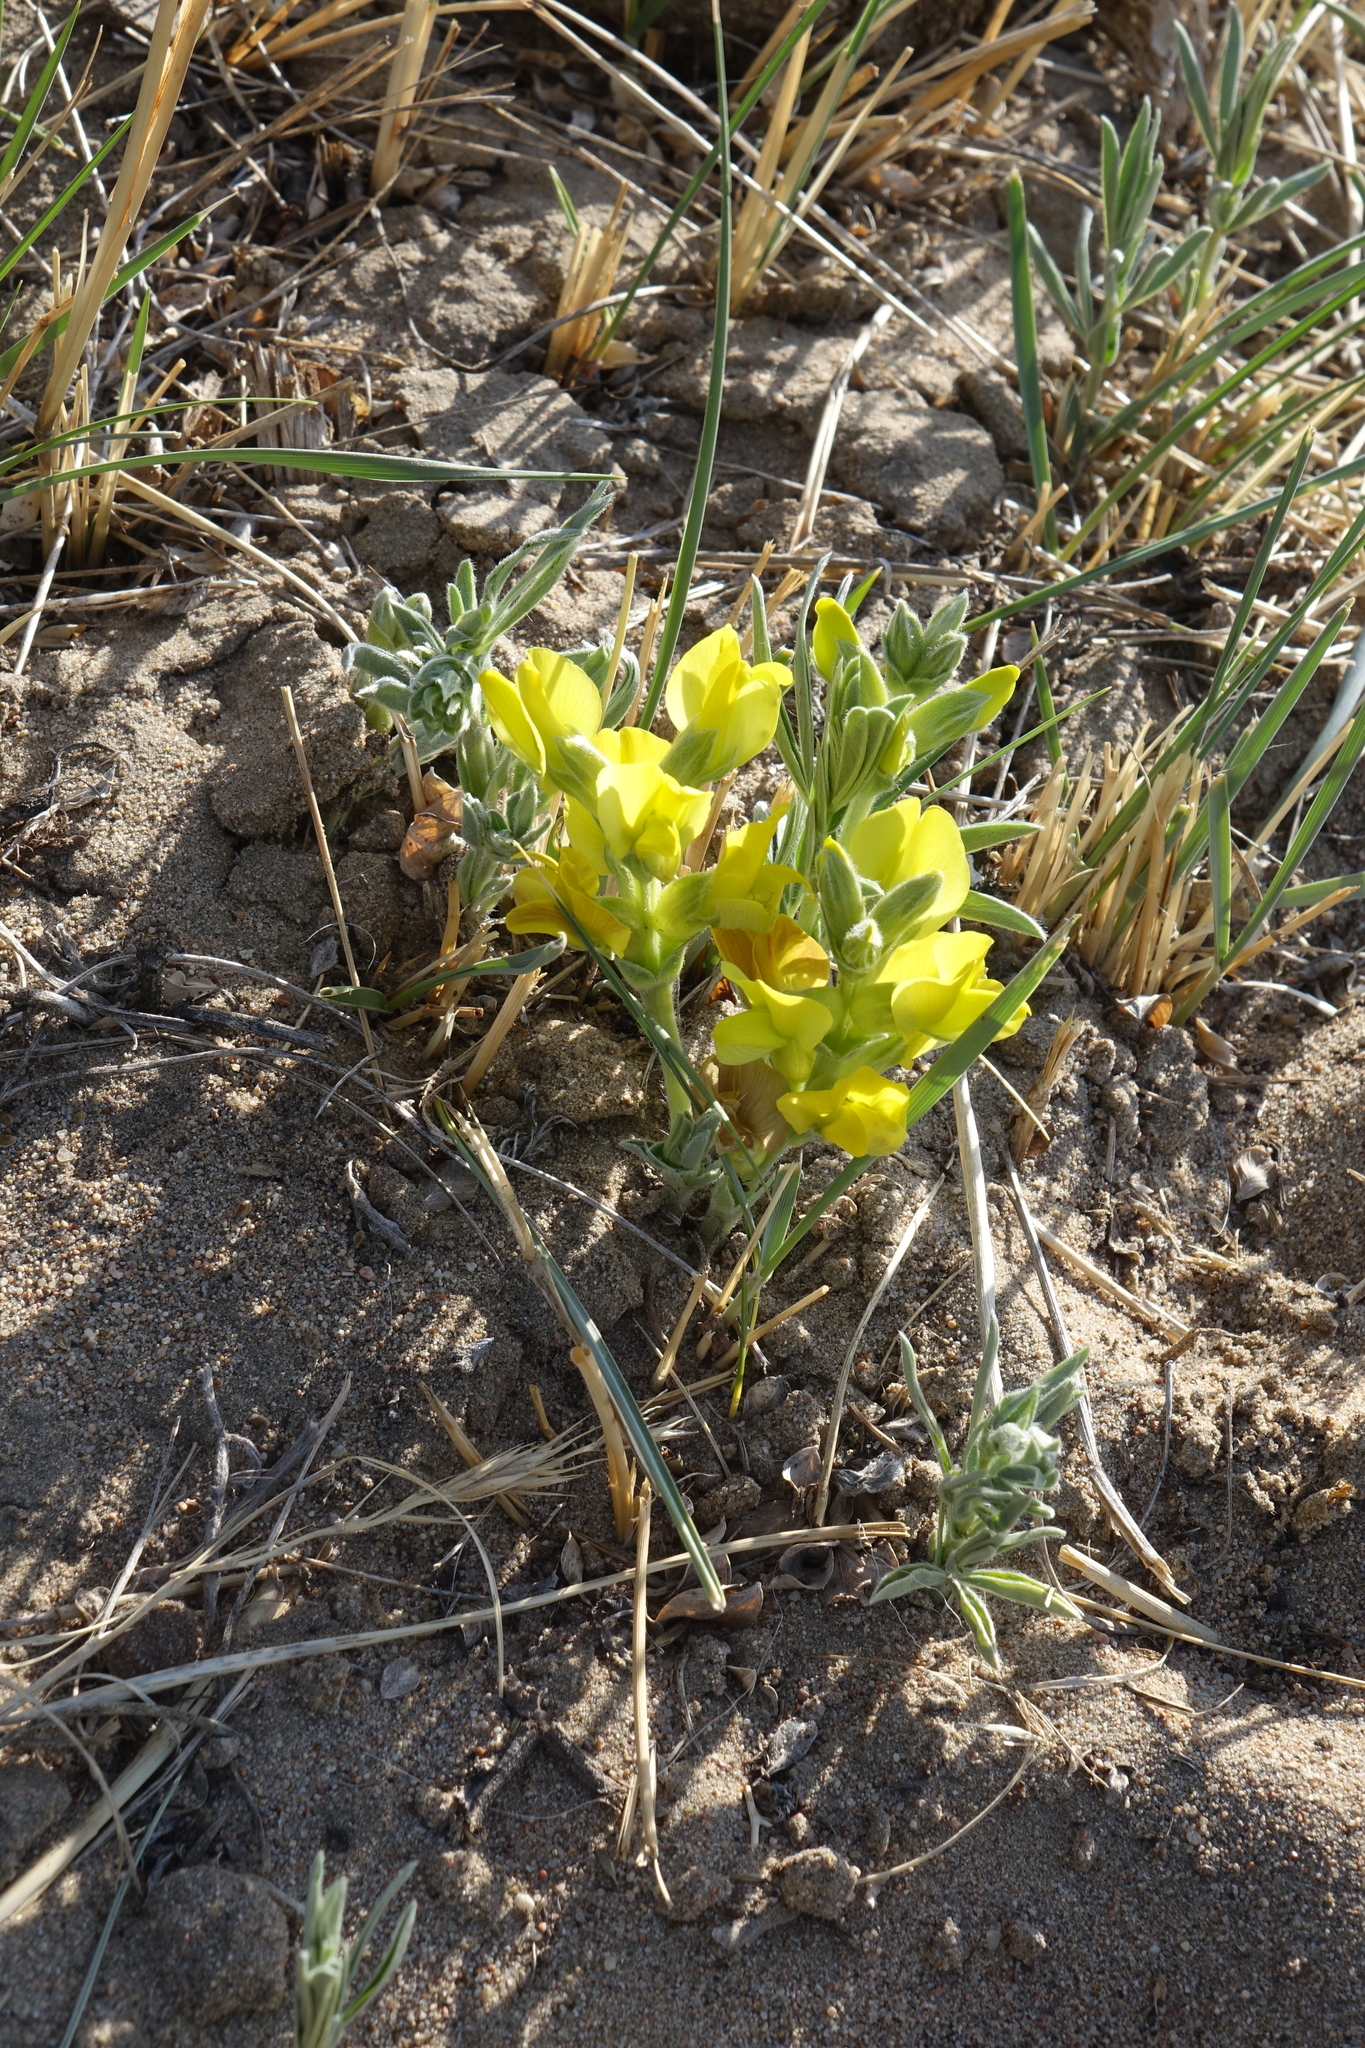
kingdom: Plantae
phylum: Tracheophyta
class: Magnoliopsida
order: Fabales
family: Fabaceae
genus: Thermopsis
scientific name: Thermopsis mongolica
